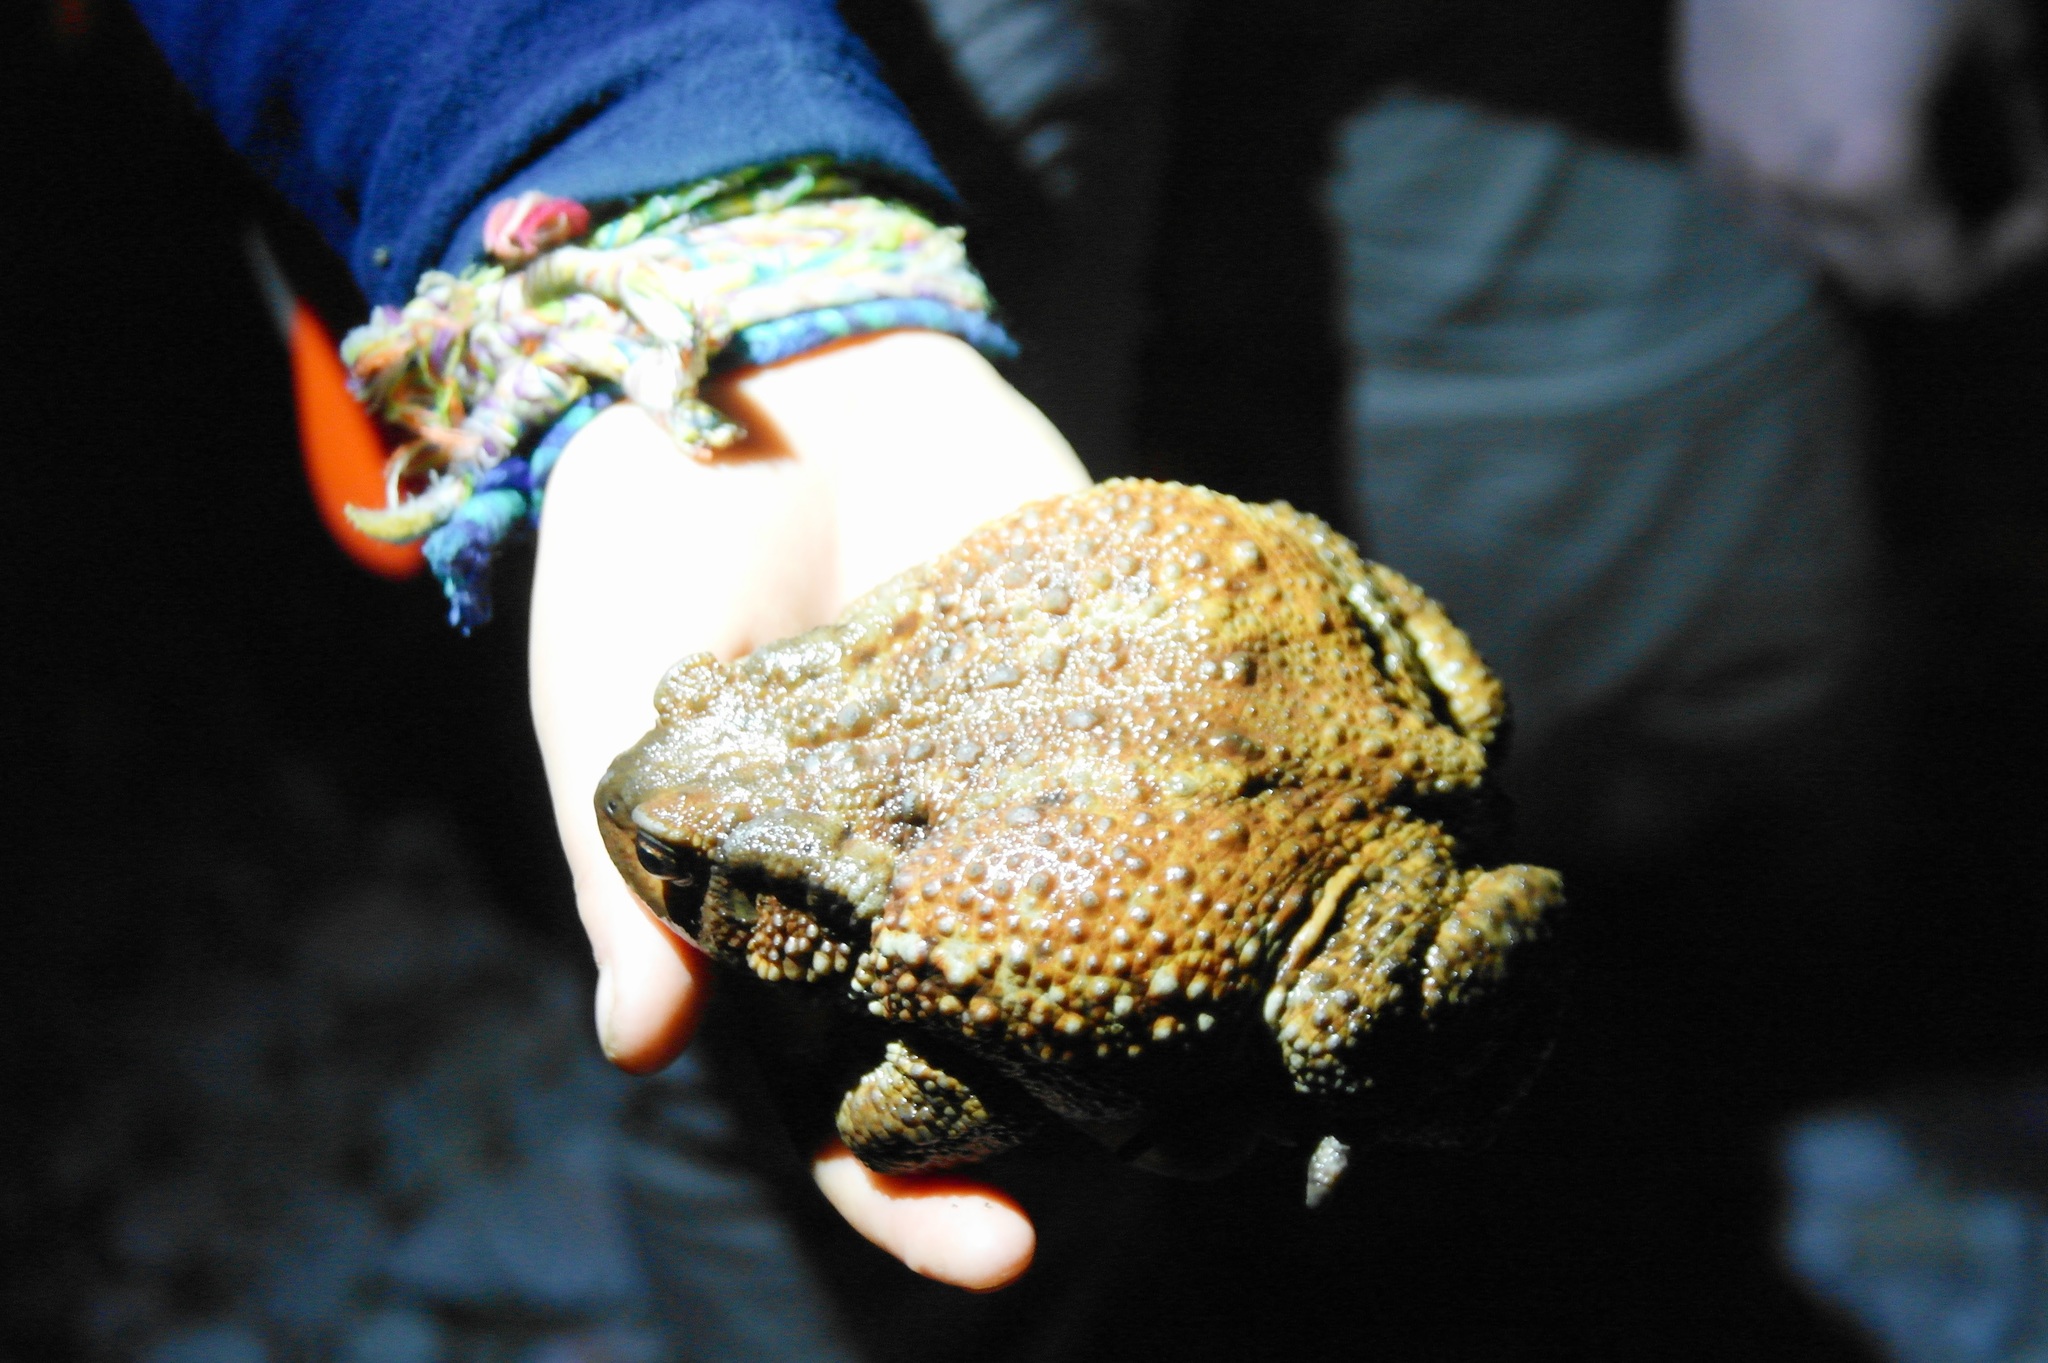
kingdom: Animalia
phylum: Chordata
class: Amphibia
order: Anura
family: Bufonidae
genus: Bufo
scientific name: Bufo verrucosissimus
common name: Caucasian toad
